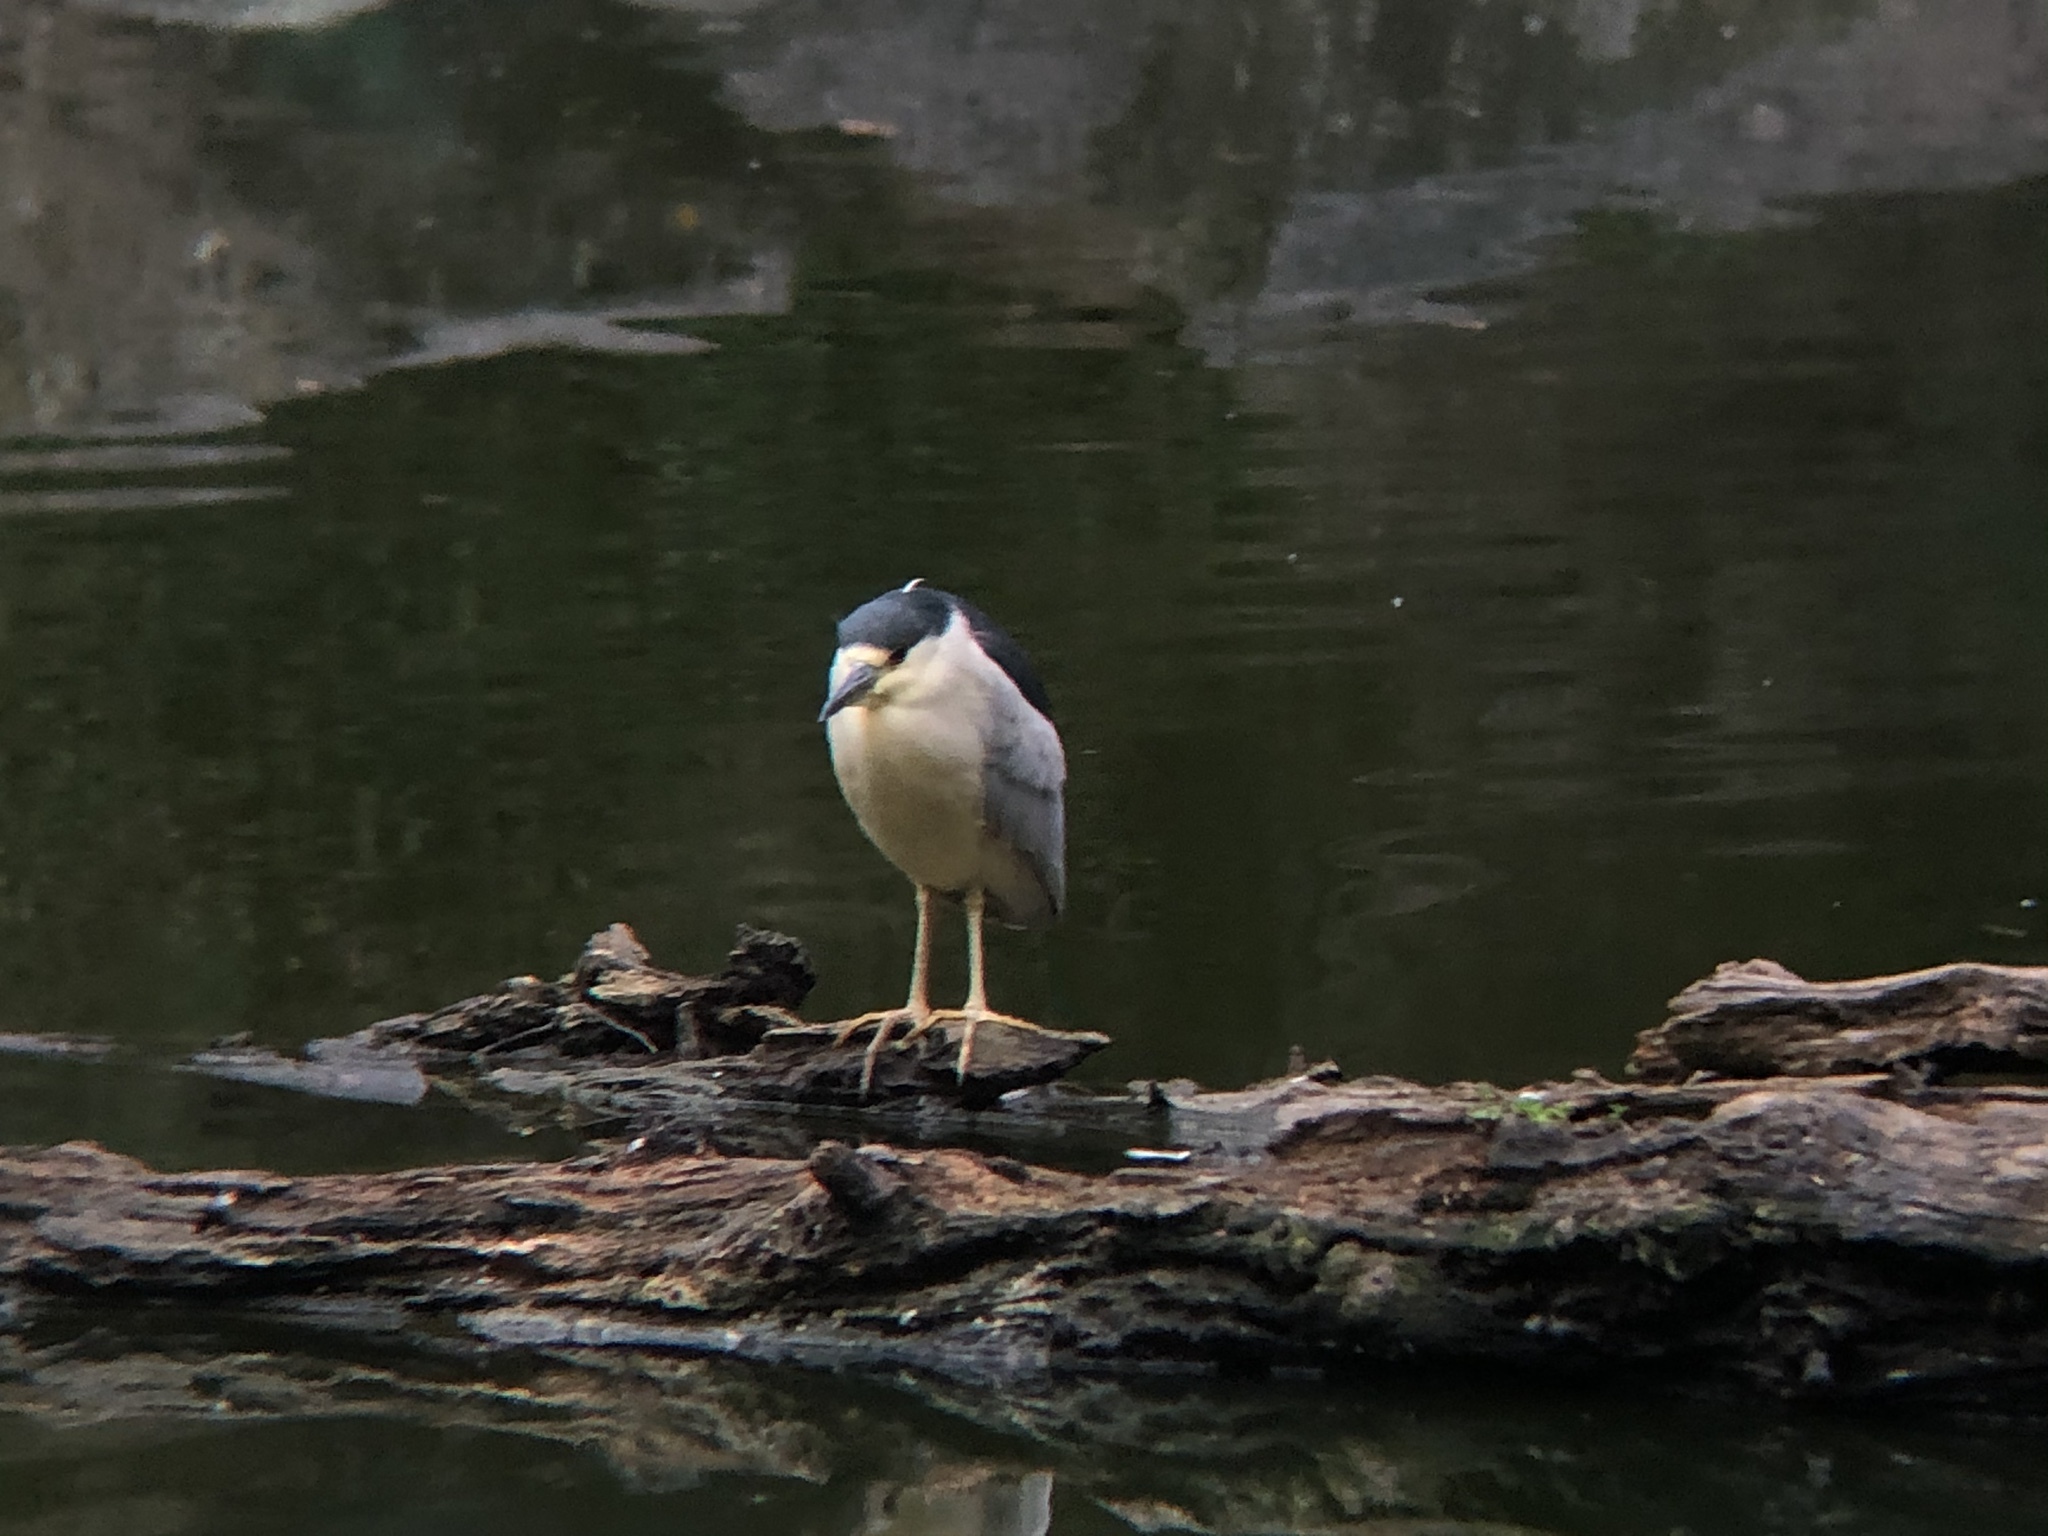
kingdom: Animalia
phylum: Chordata
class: Aves
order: Pelecaniformes
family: Ardeidae
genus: Nycticorax
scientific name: Nycticorax nycticorax
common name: Black-crowned night heron
